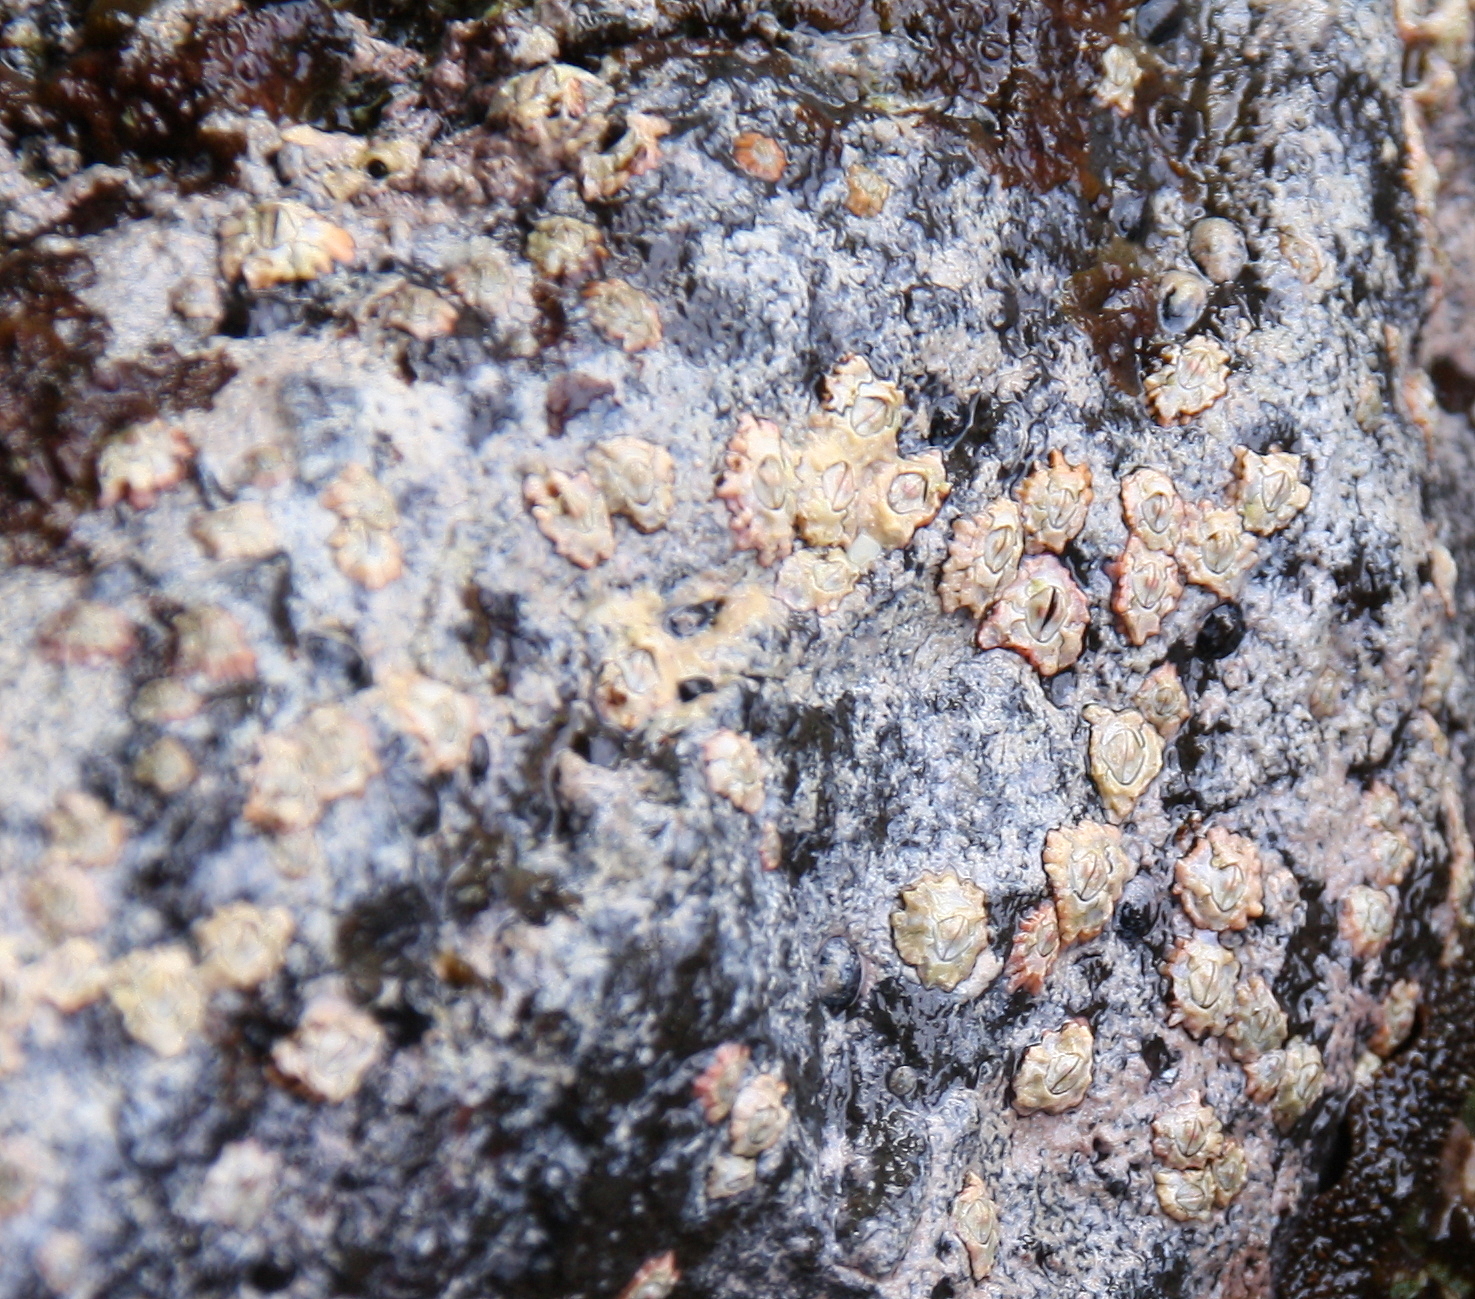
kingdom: Animalia
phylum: Arthropoda
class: Maxillopoda
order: Sessilia
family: Chthamalidae
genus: Rehderella
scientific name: Rehderella belyaevi
